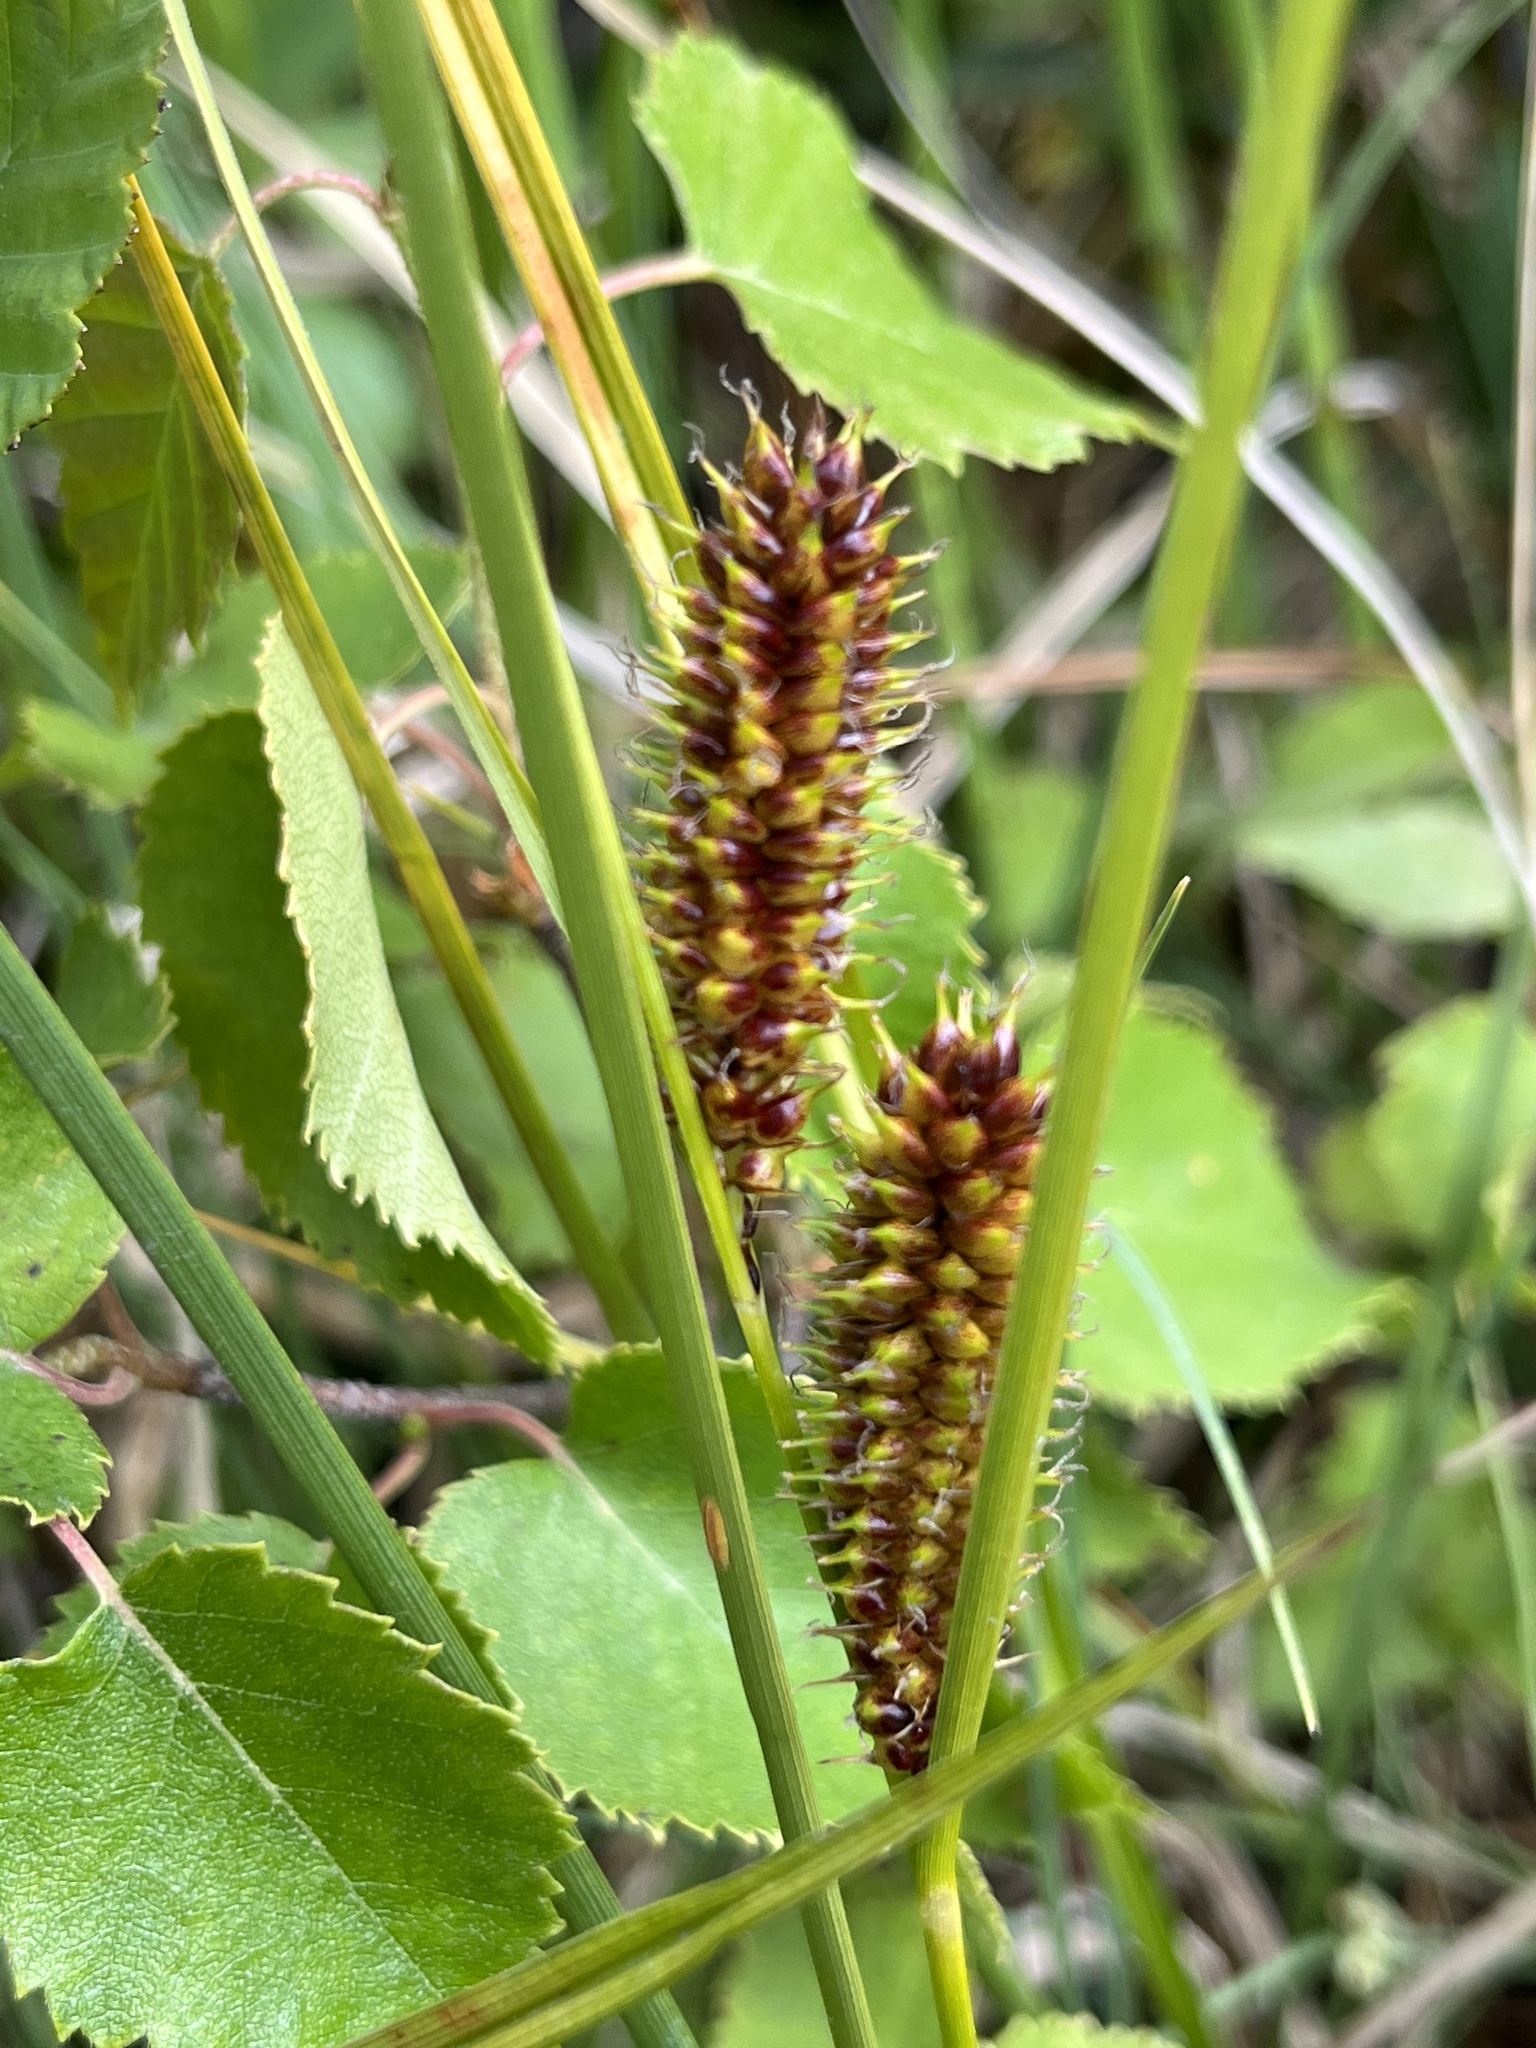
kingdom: Plantae
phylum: Tracheophyta
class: Liliopsida
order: Poales
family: Cyperaceae
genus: Carex
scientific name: Carex utriculata
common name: Beaked sedge
